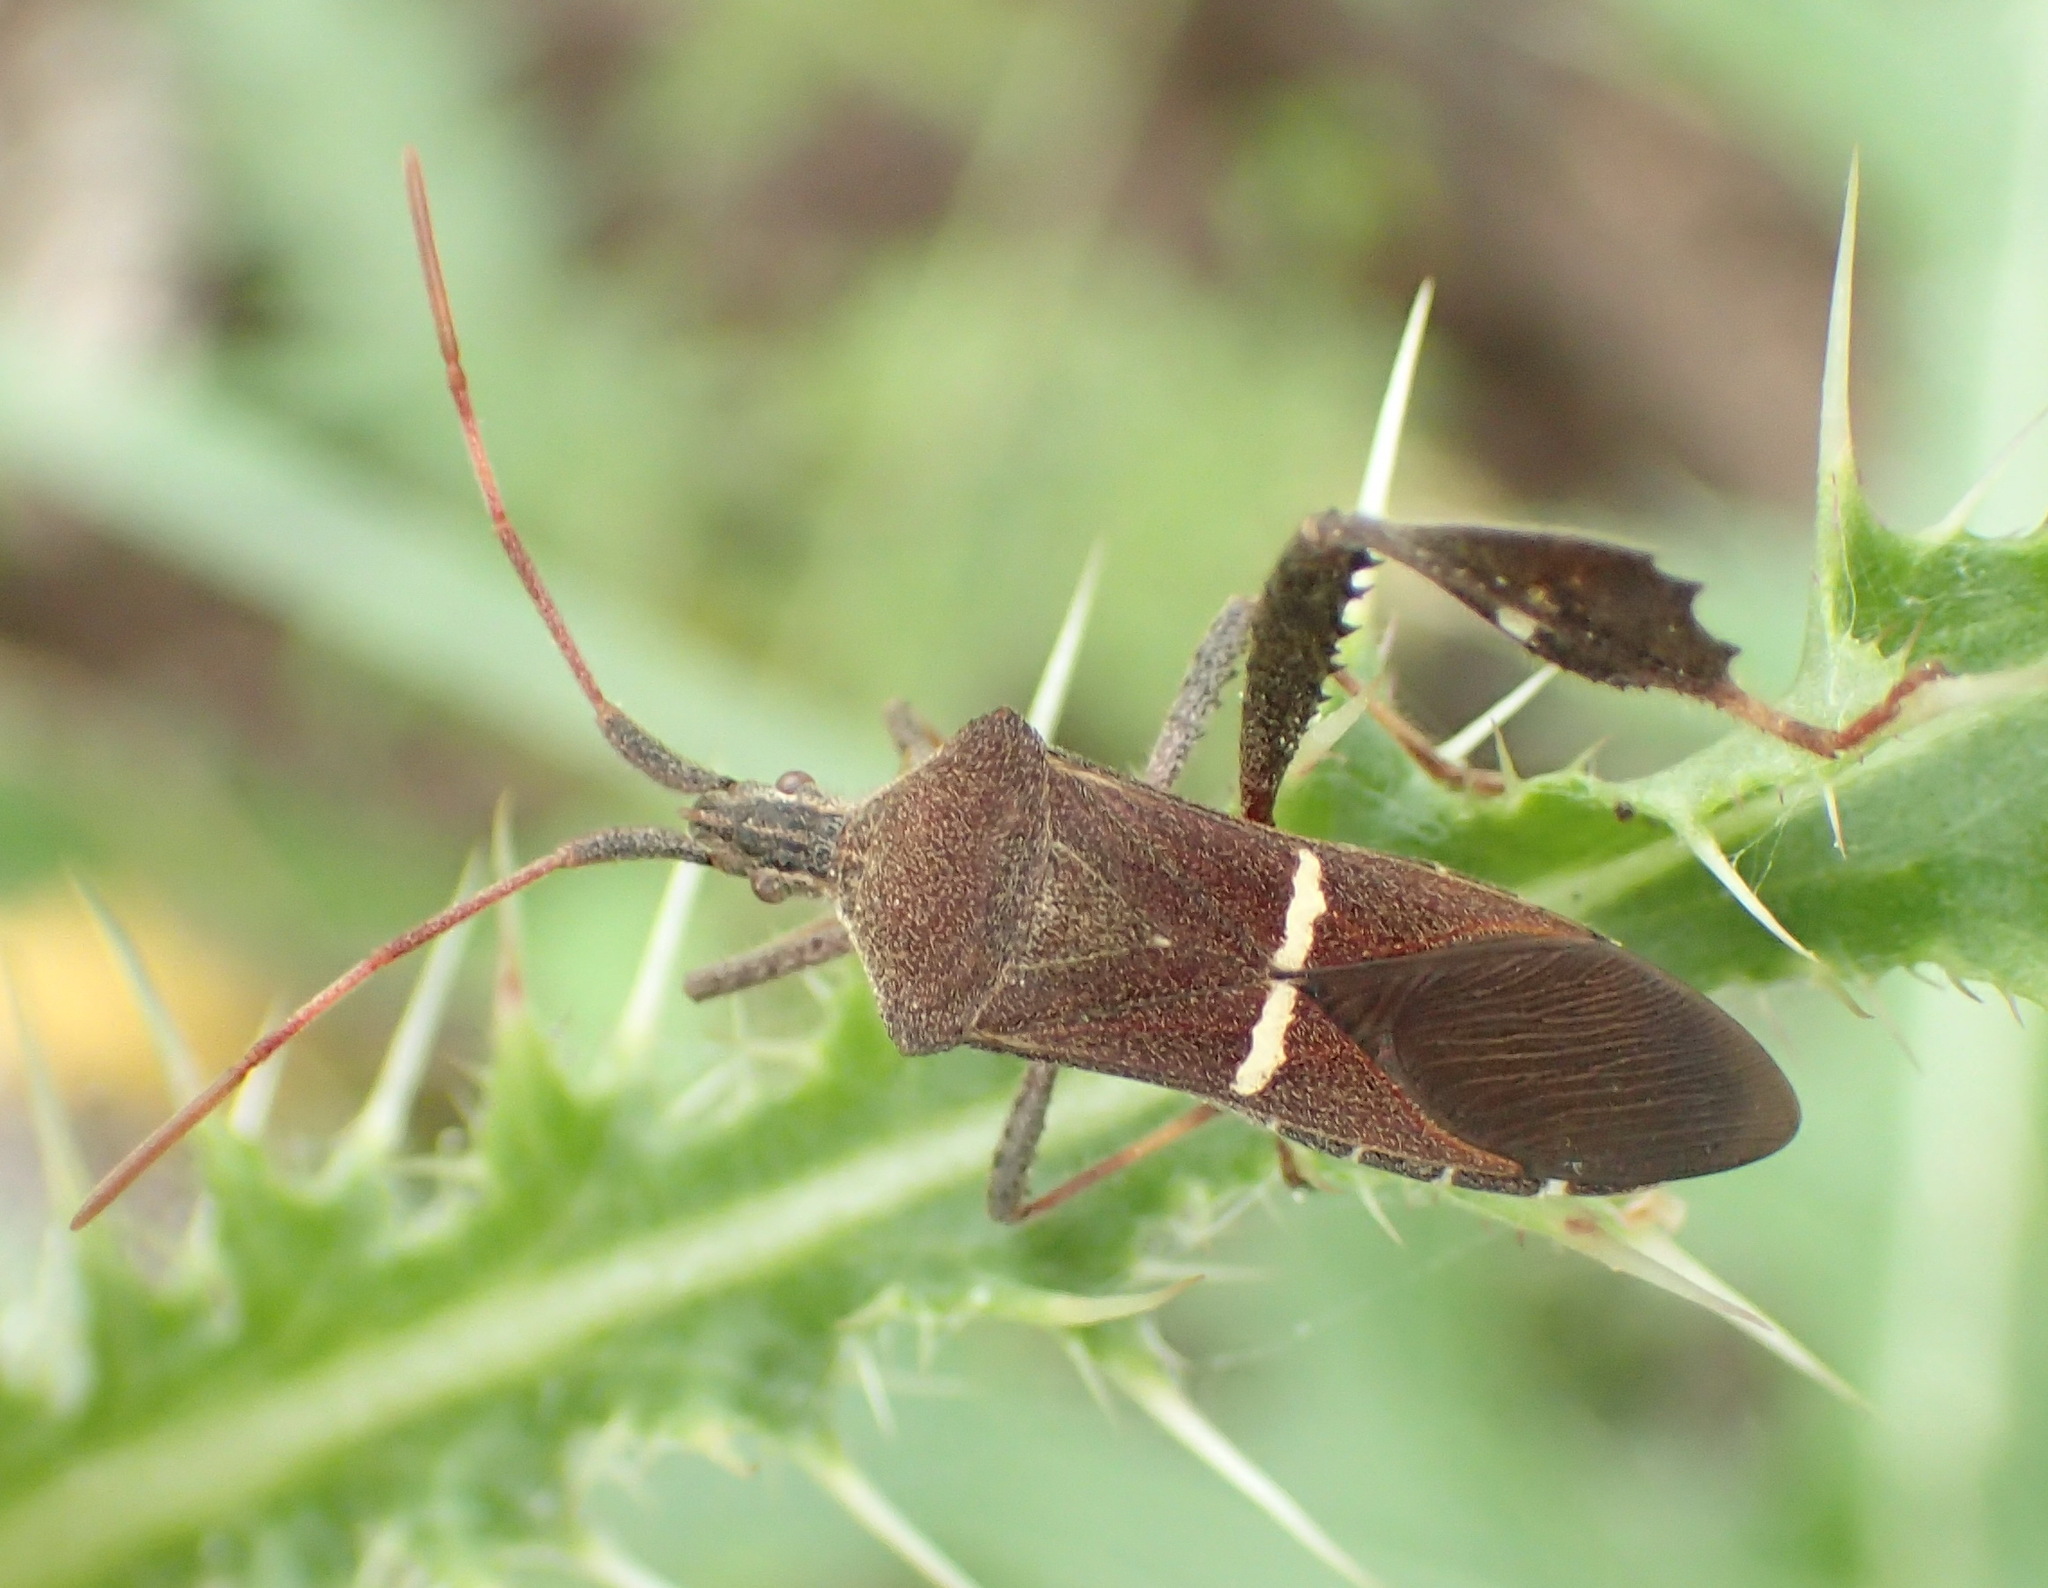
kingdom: Animalia
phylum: Arthropoda
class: Insecta
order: Hemiptera
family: Coreidae
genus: Leptoglossus
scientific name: Leptoglossus phyllopus
